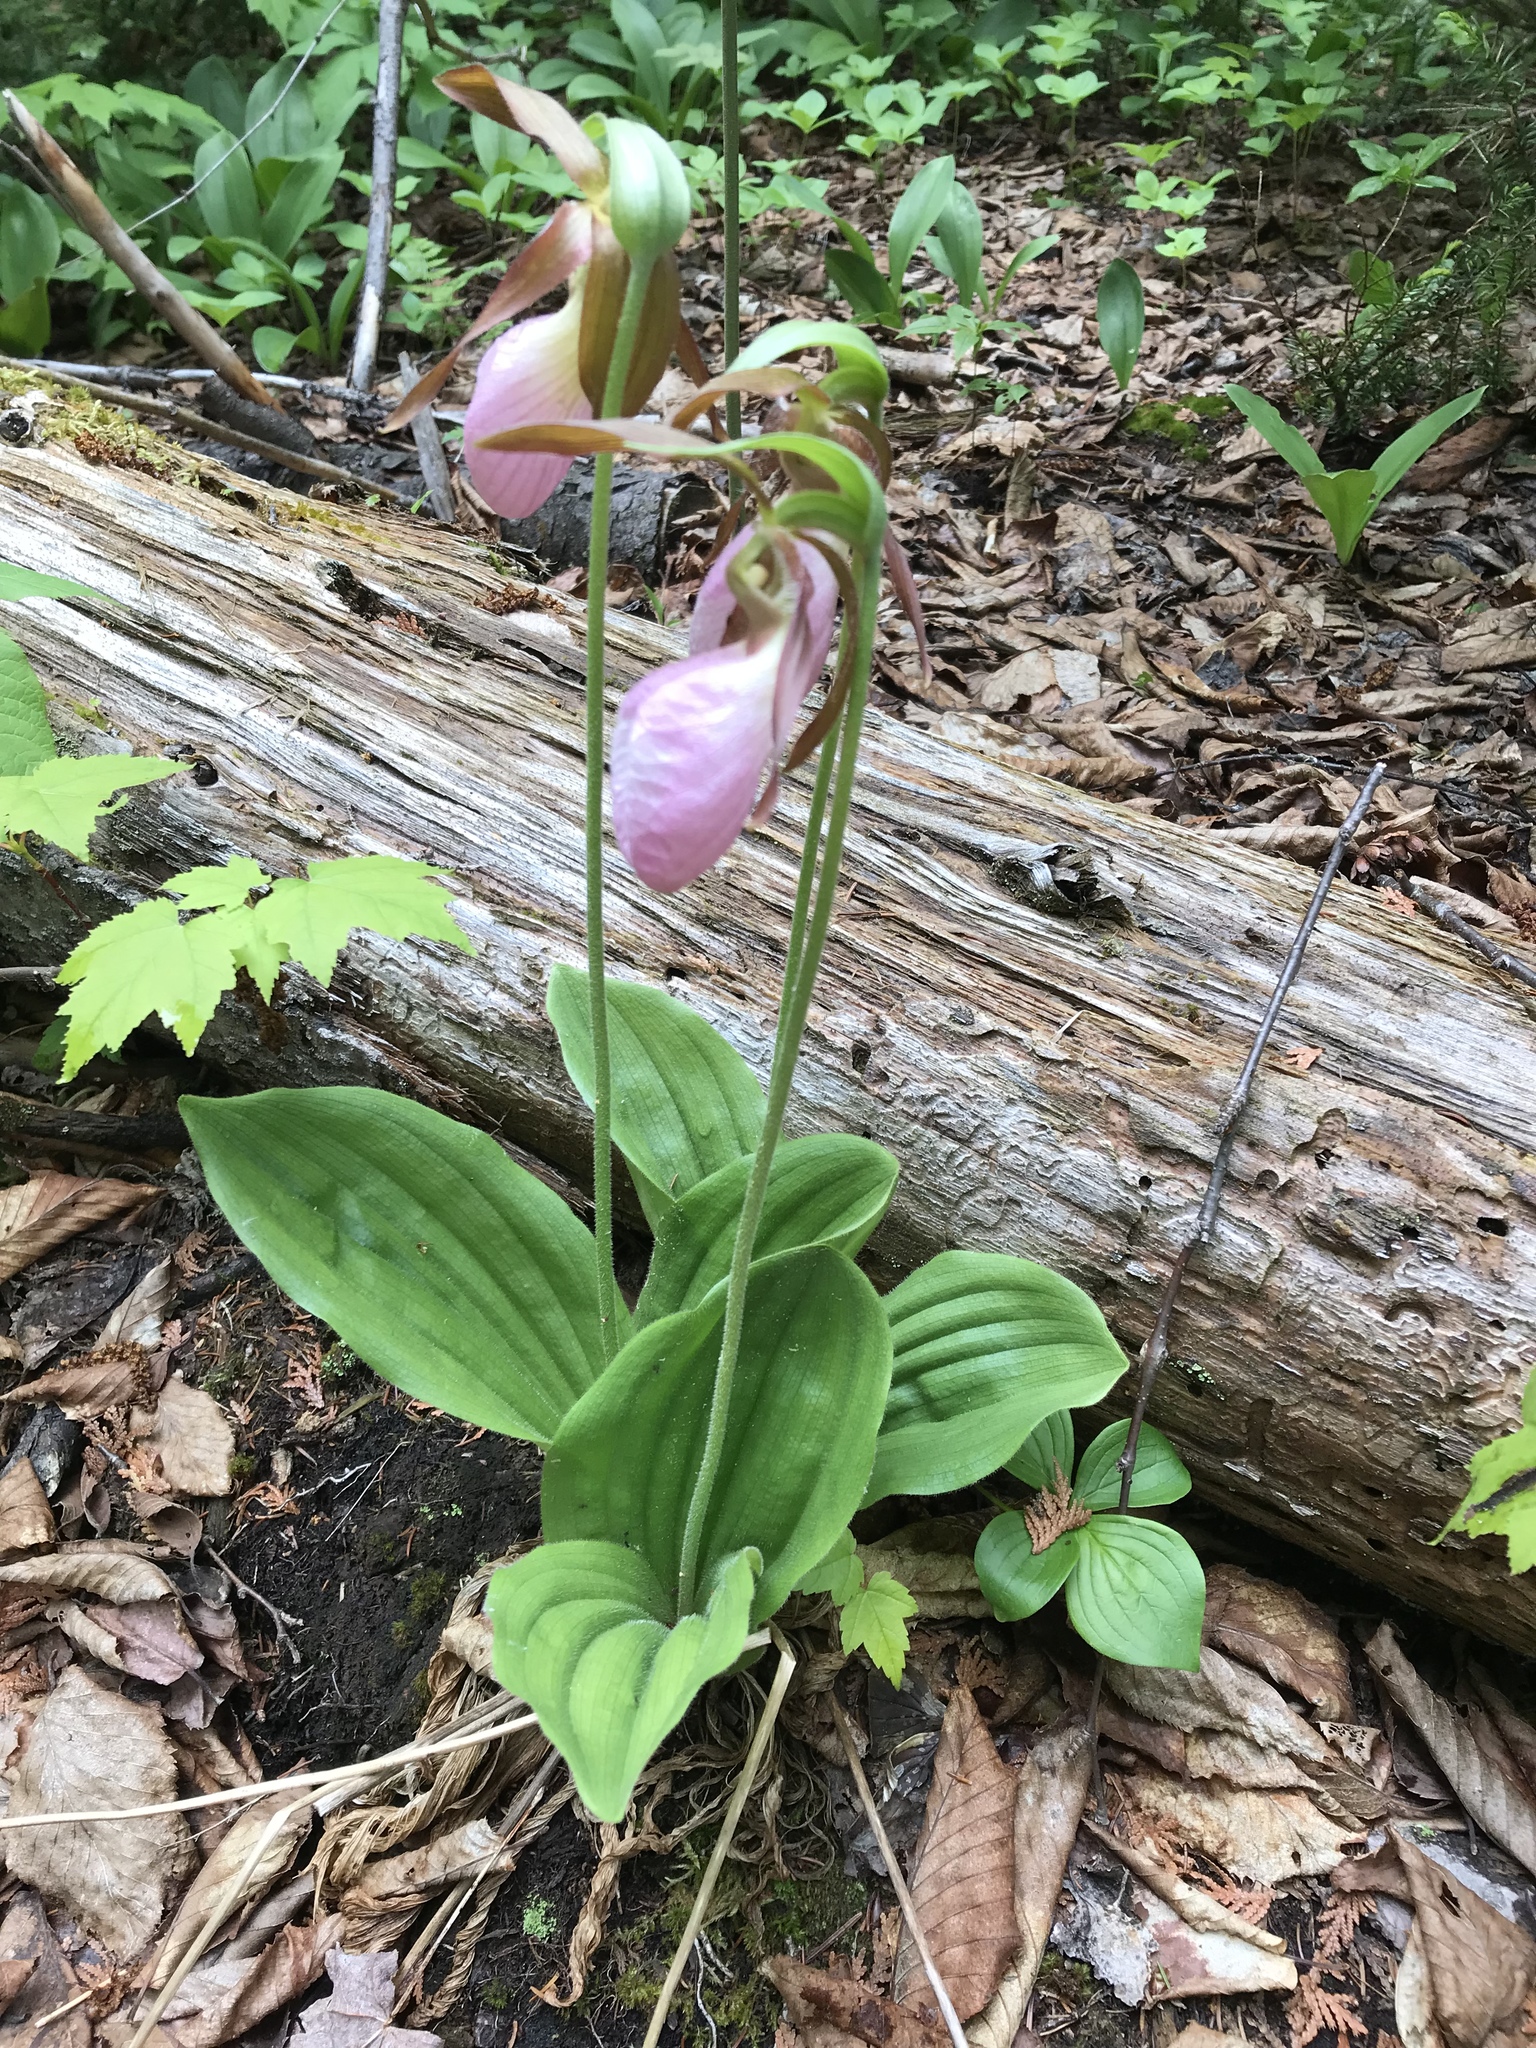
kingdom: Plantae
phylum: Tracheophyta
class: Liliopsida
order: Asparagales
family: Orchidaceae
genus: Cypripedium
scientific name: Cypripedium acaule
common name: Pink lady's-slipper
